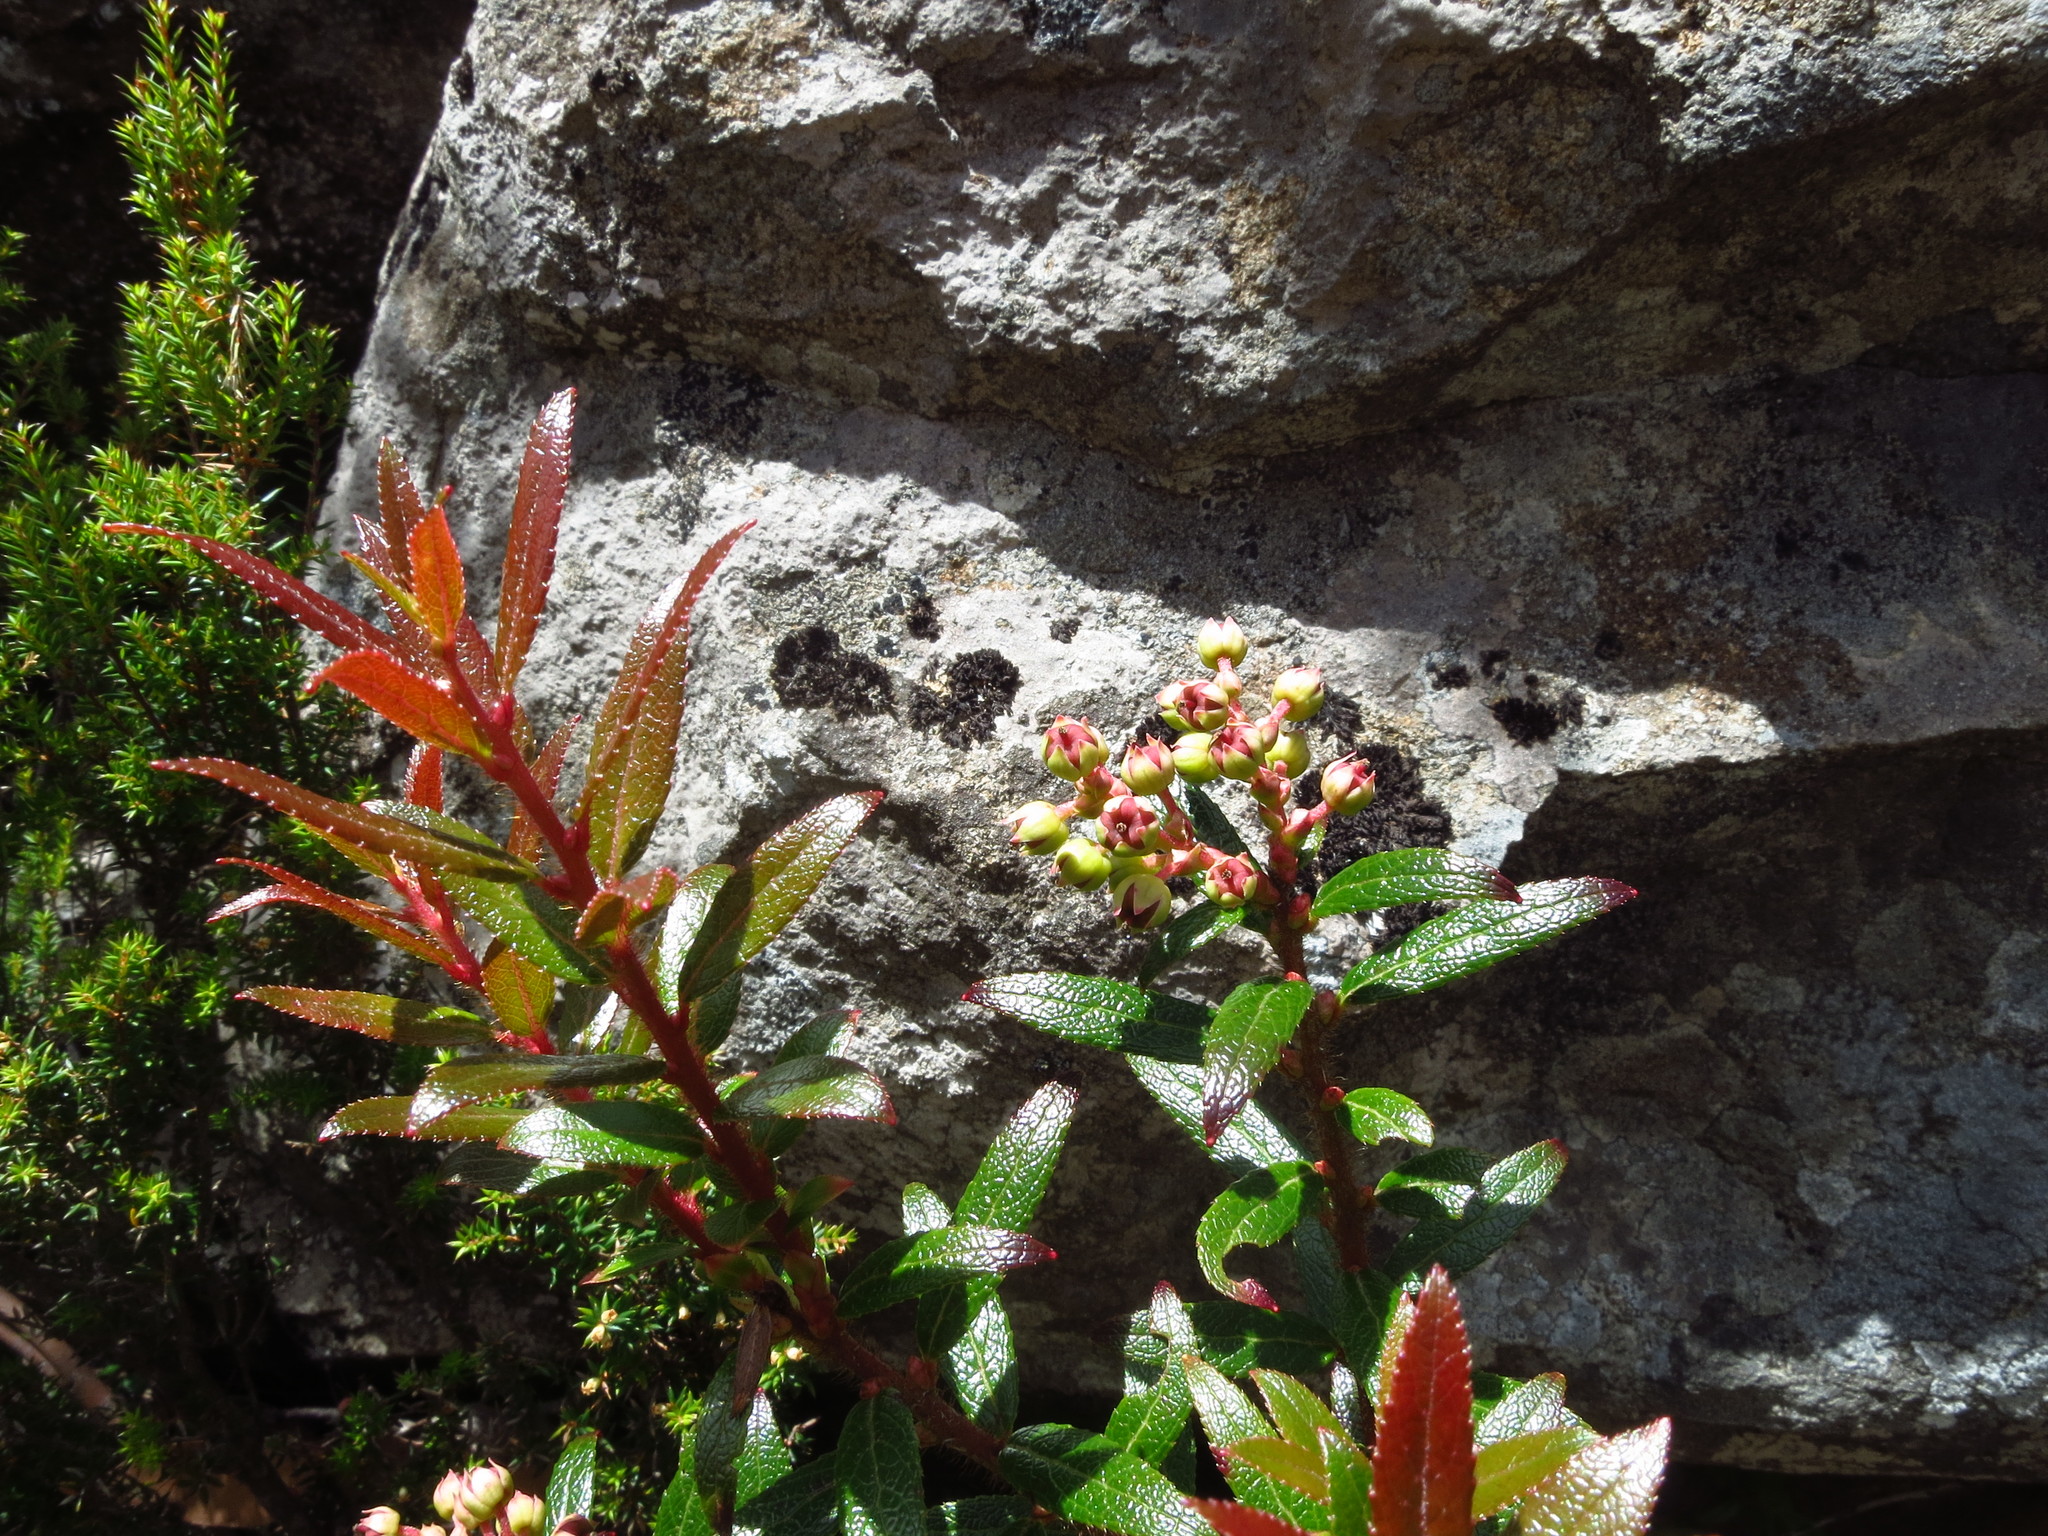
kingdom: Plantae
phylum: Tracheophyta
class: Magnoliopsida
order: Ericales
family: Ericaceae
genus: Gaultheria
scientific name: Gaultheria hispida
